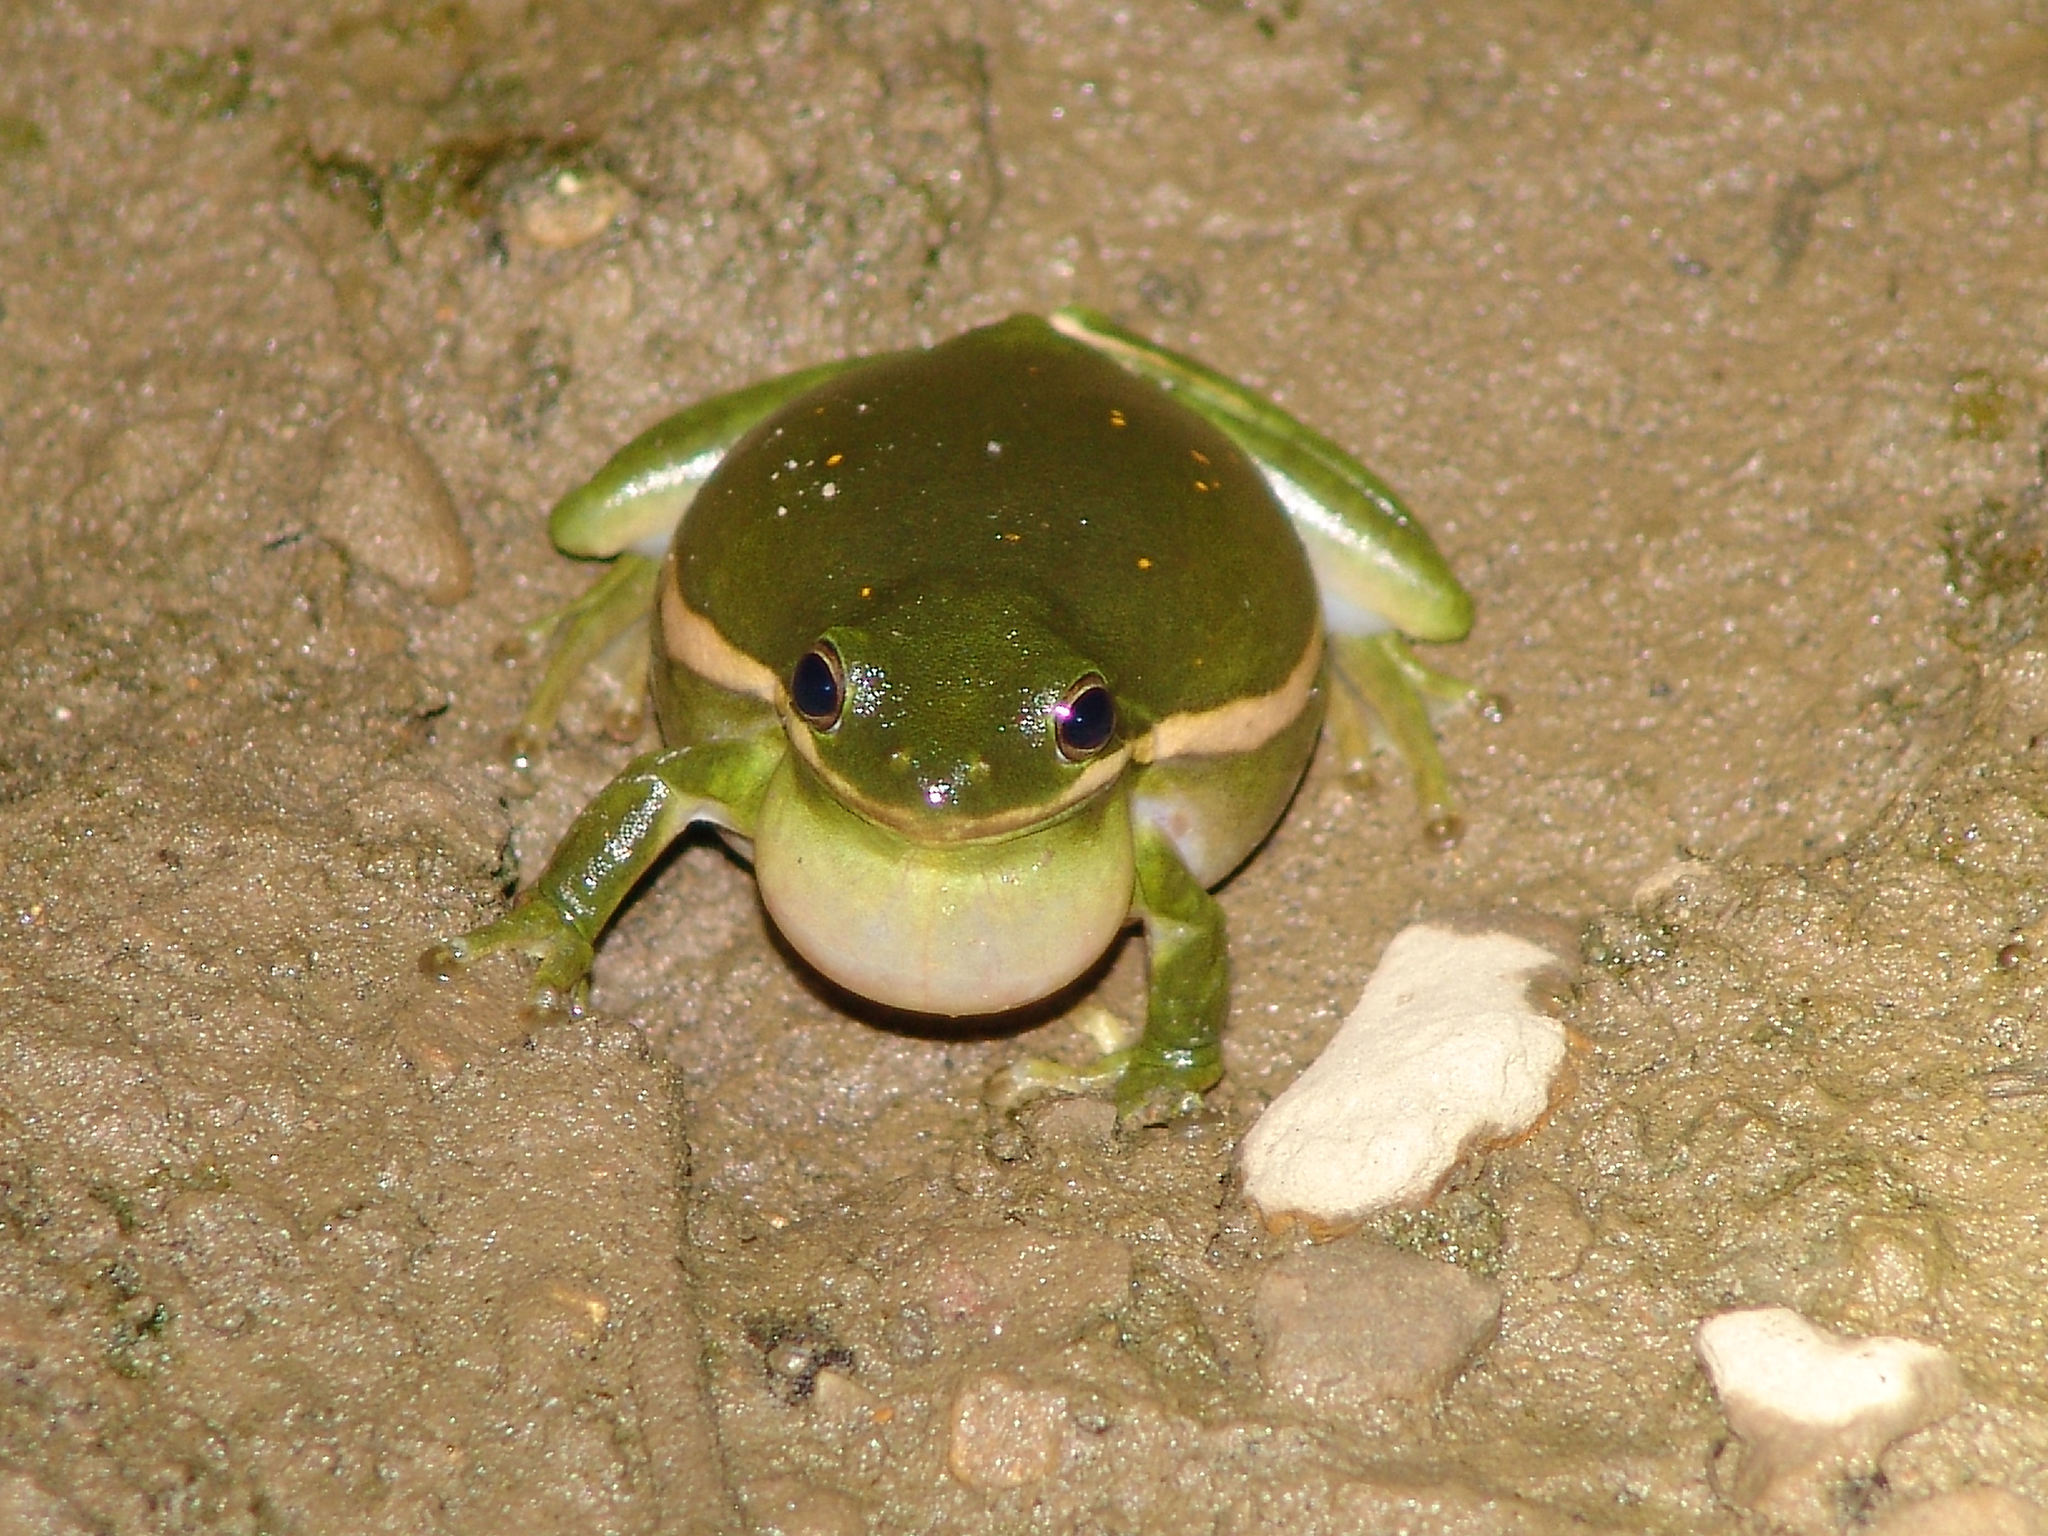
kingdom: Animalia
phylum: Chordata
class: Amphibia
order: Anura
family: Hylidae
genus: Dryophytes
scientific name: Dryophytes cinereus
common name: Green treefrog
